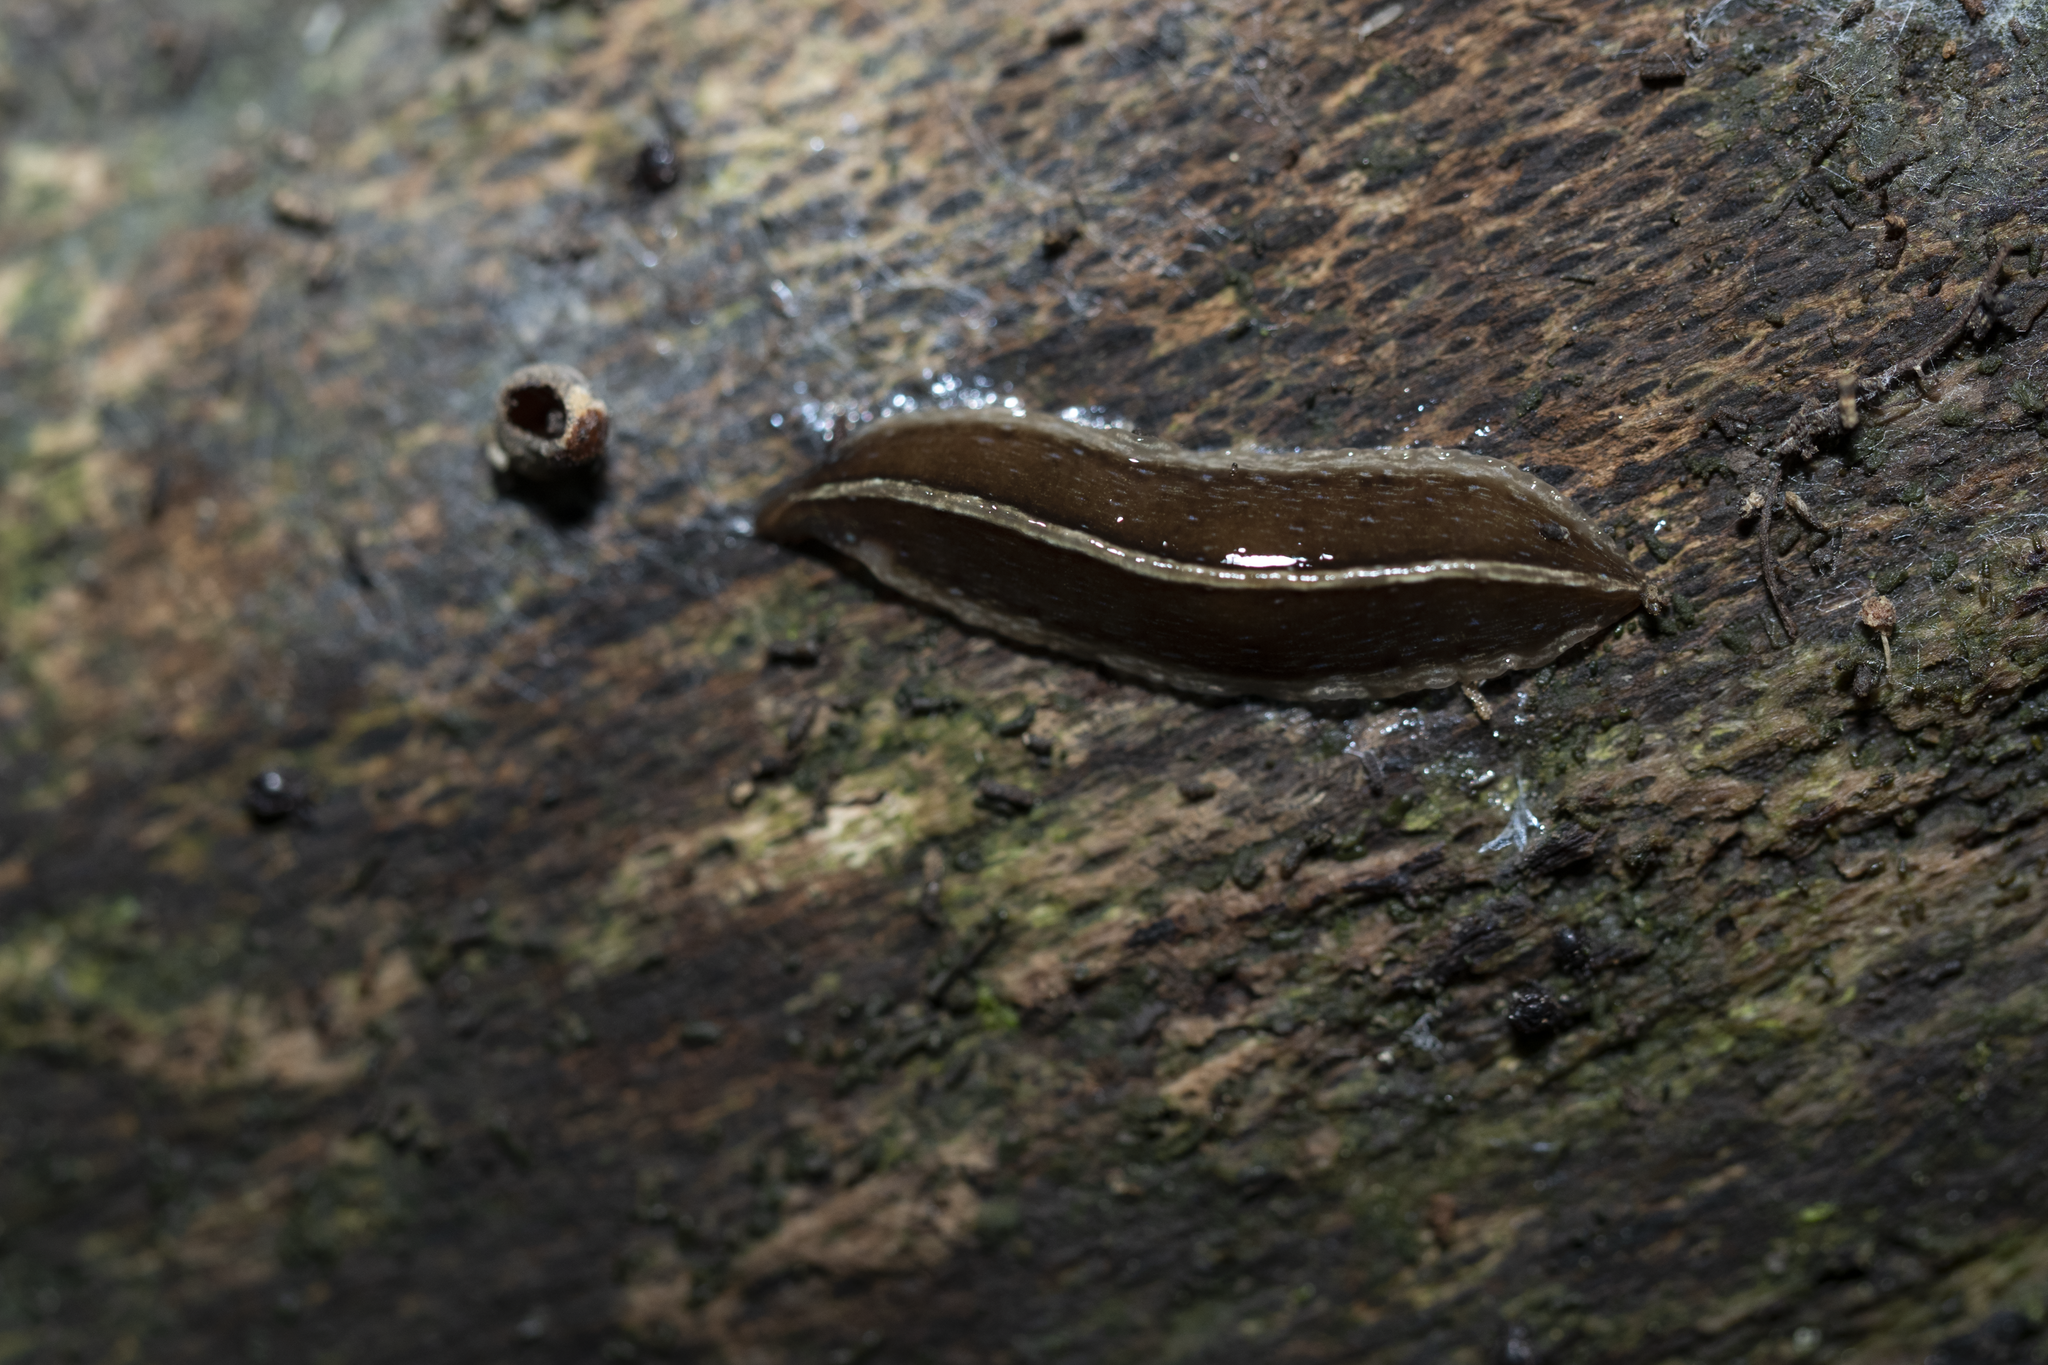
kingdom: Animalia
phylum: Platyhelminthes
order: Tricladida
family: Geoplanidae
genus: Newzealandia
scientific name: Newzealandia graffii
